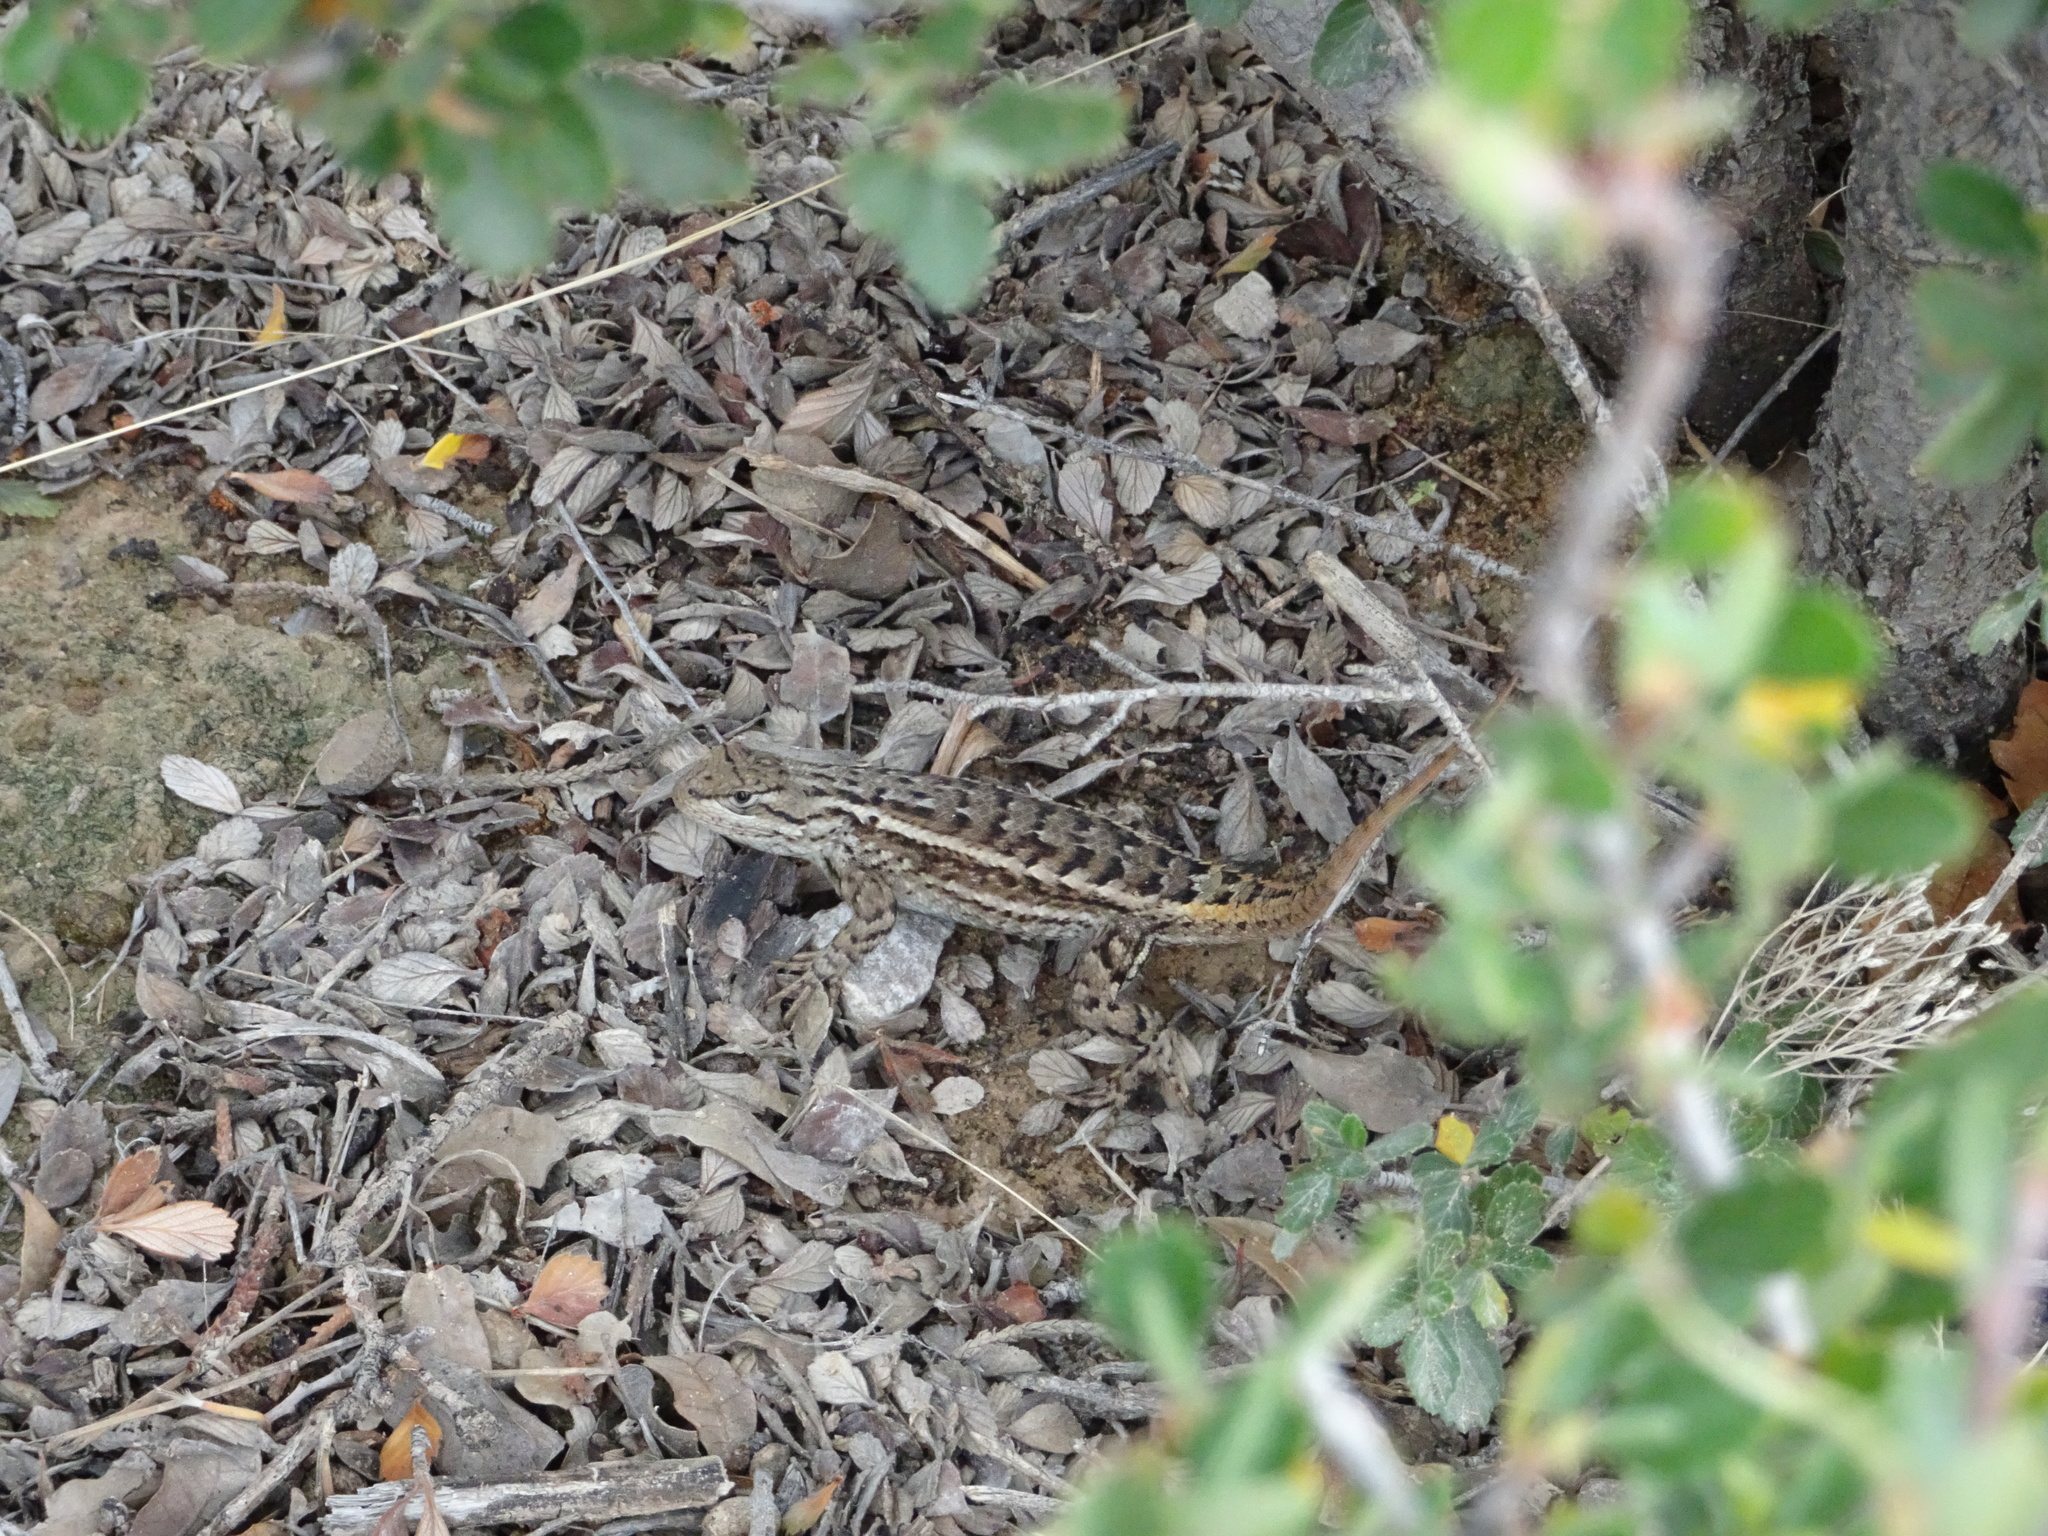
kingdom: Animalia
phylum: Chordata
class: Squamata
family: Phrynosomatidae
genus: Sceloporus
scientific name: Sceloporus cowlesi
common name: White sands prairie lizard
